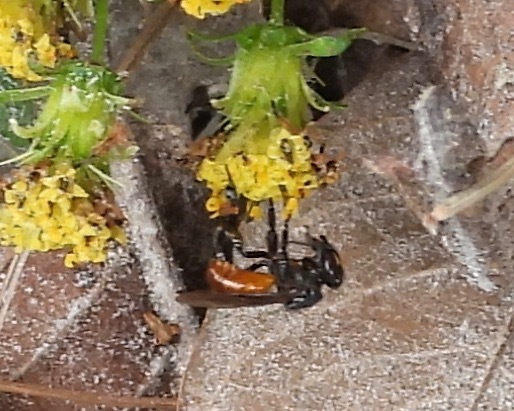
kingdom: Animalia
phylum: Arthropoda
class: Insecta
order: Hymenoptera
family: Apidae
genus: Trigona
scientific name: Trigona fulviventris
